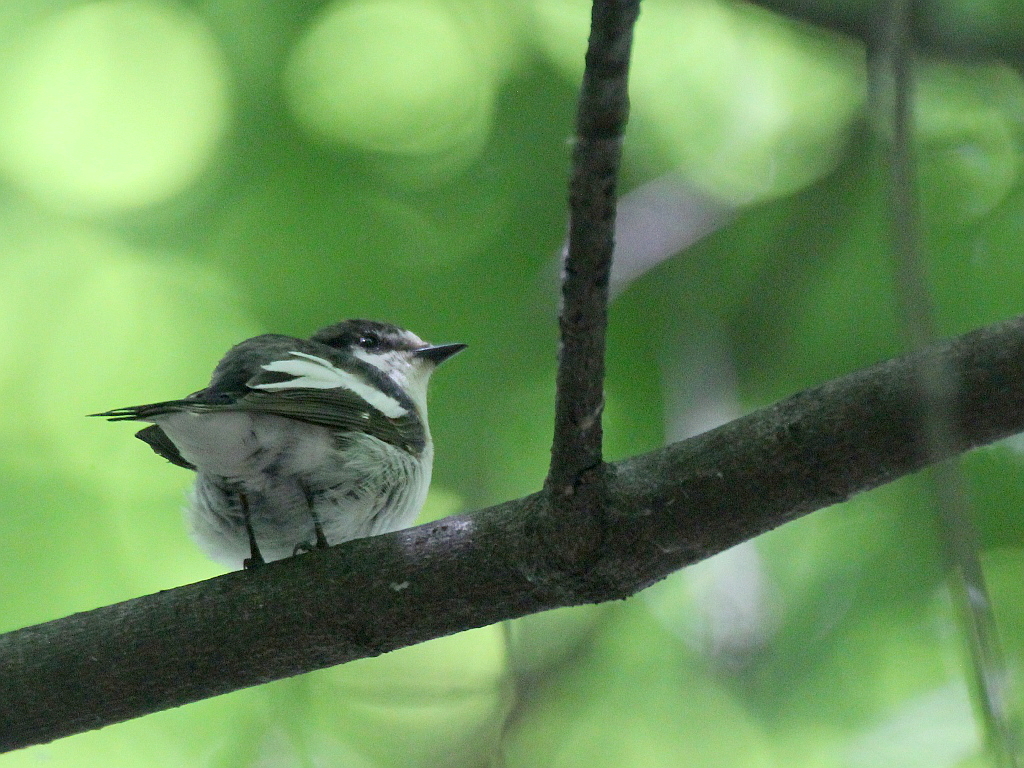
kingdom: Animalia
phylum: Chordata
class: Aves
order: Passeriformes
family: Muscicapidae
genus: Ficedula
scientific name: Ficedula hypoleuca
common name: European pied flycatcher
